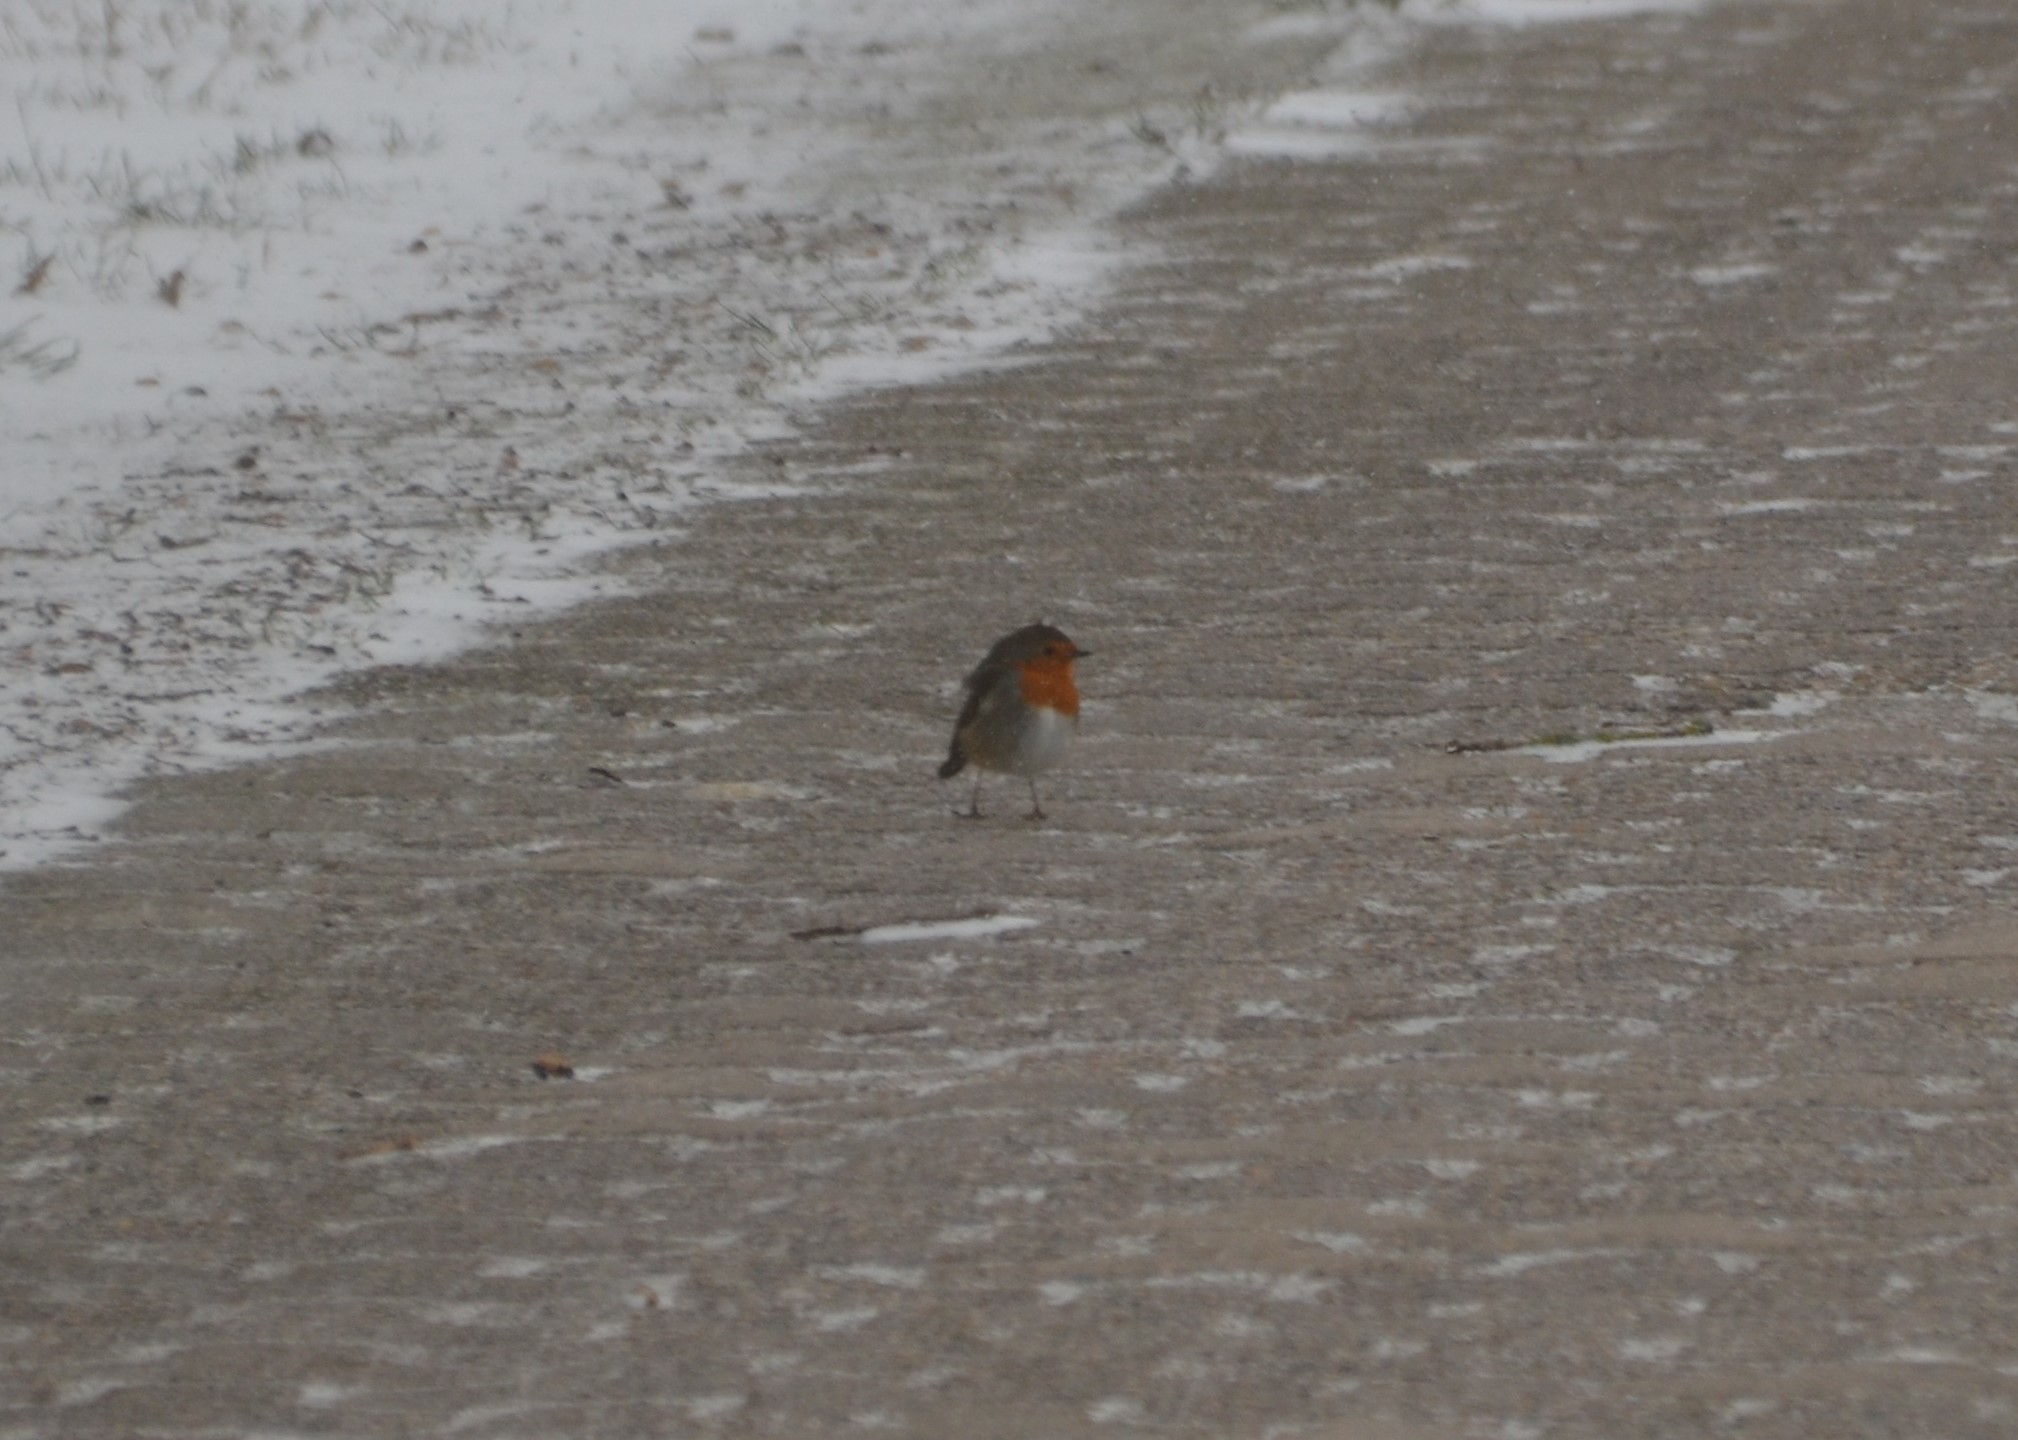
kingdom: Animalia
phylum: Chordata
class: Aves
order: Passeriformes
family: Muscicapidae
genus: Erithacus
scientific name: Erithacus rubecula
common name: European robin
